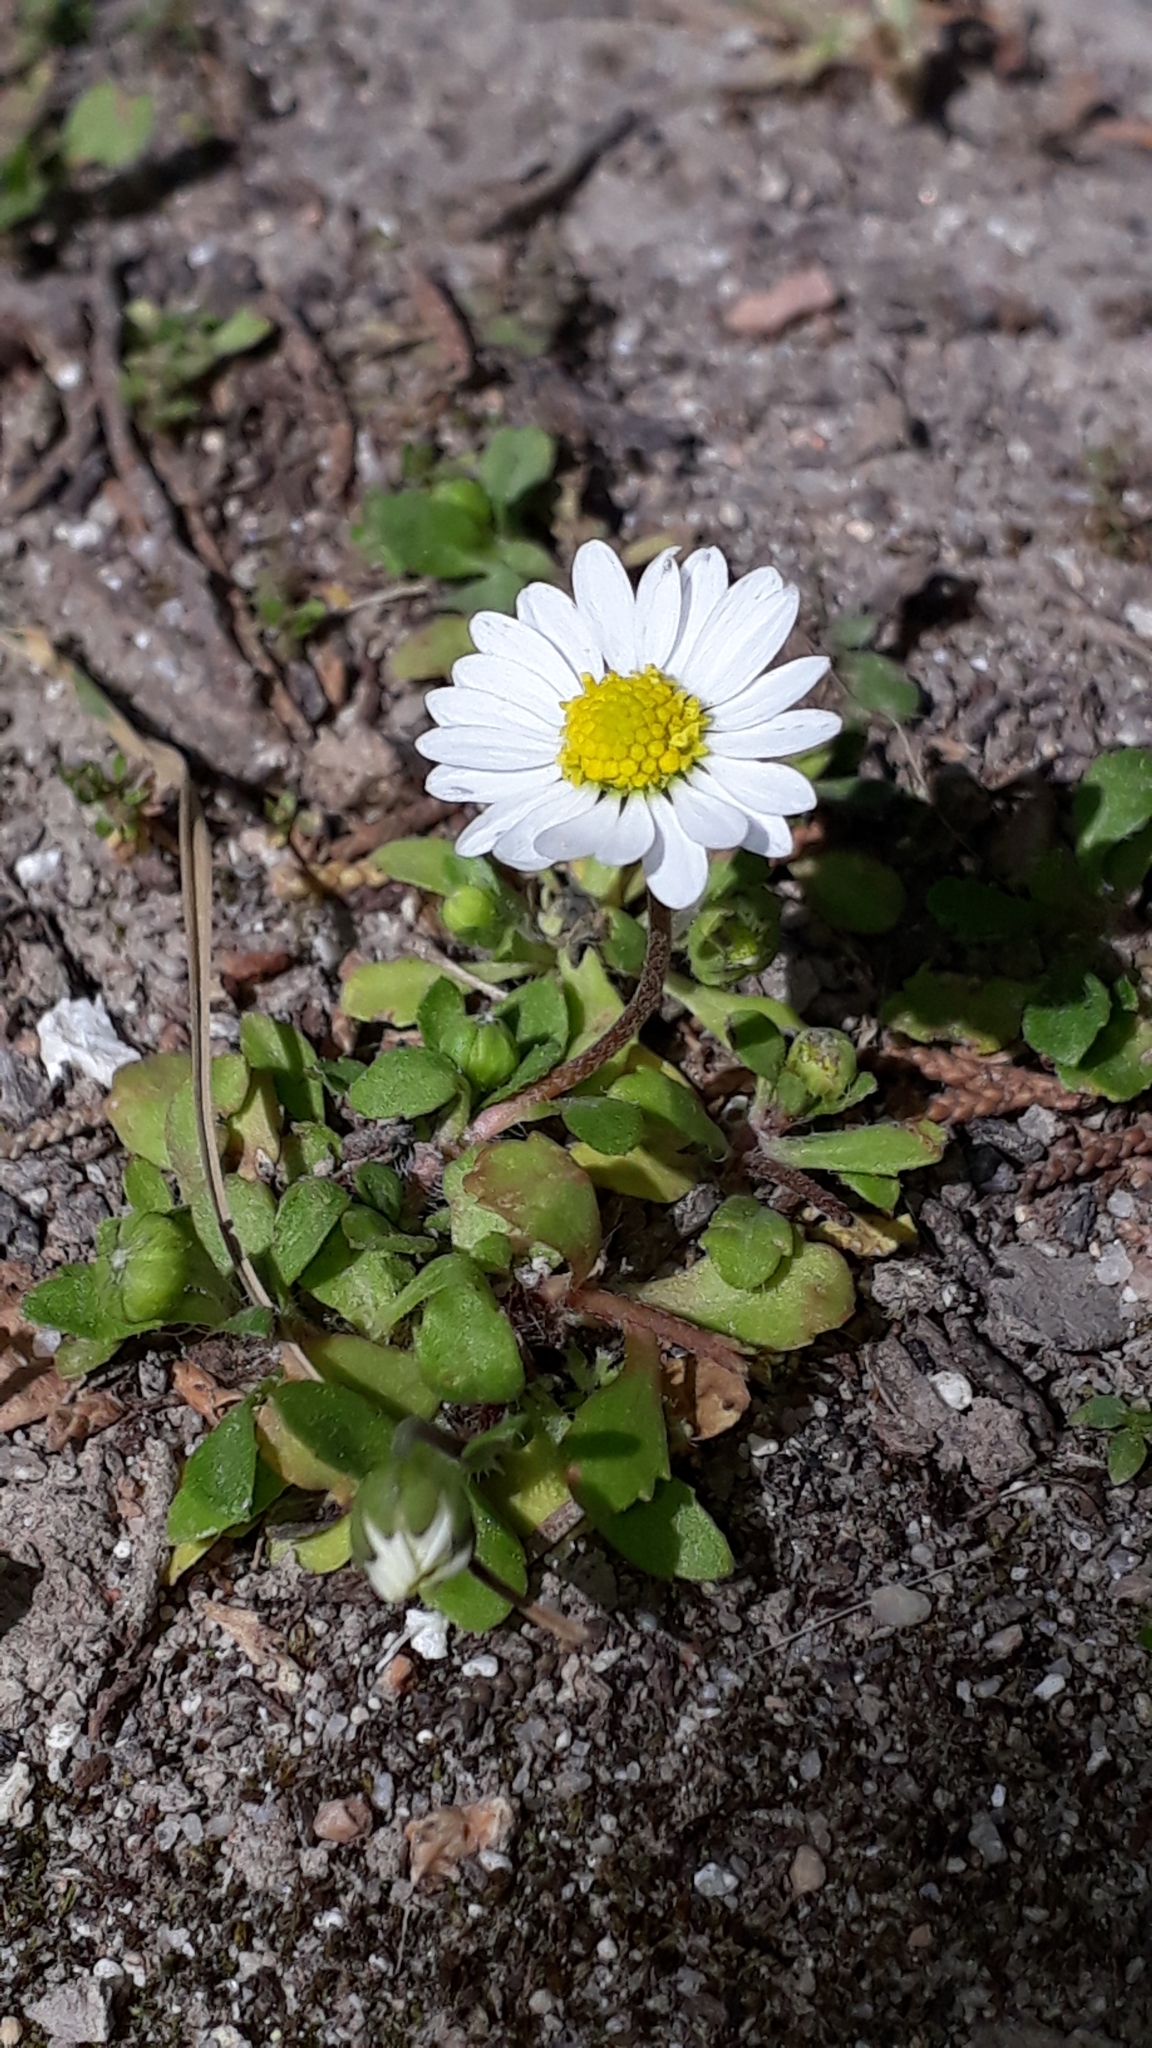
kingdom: Plantae
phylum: Tracheophyta
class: Magnoliopsida
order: Asterales
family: Asteraceae
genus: Bellis
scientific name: Bellis annua
